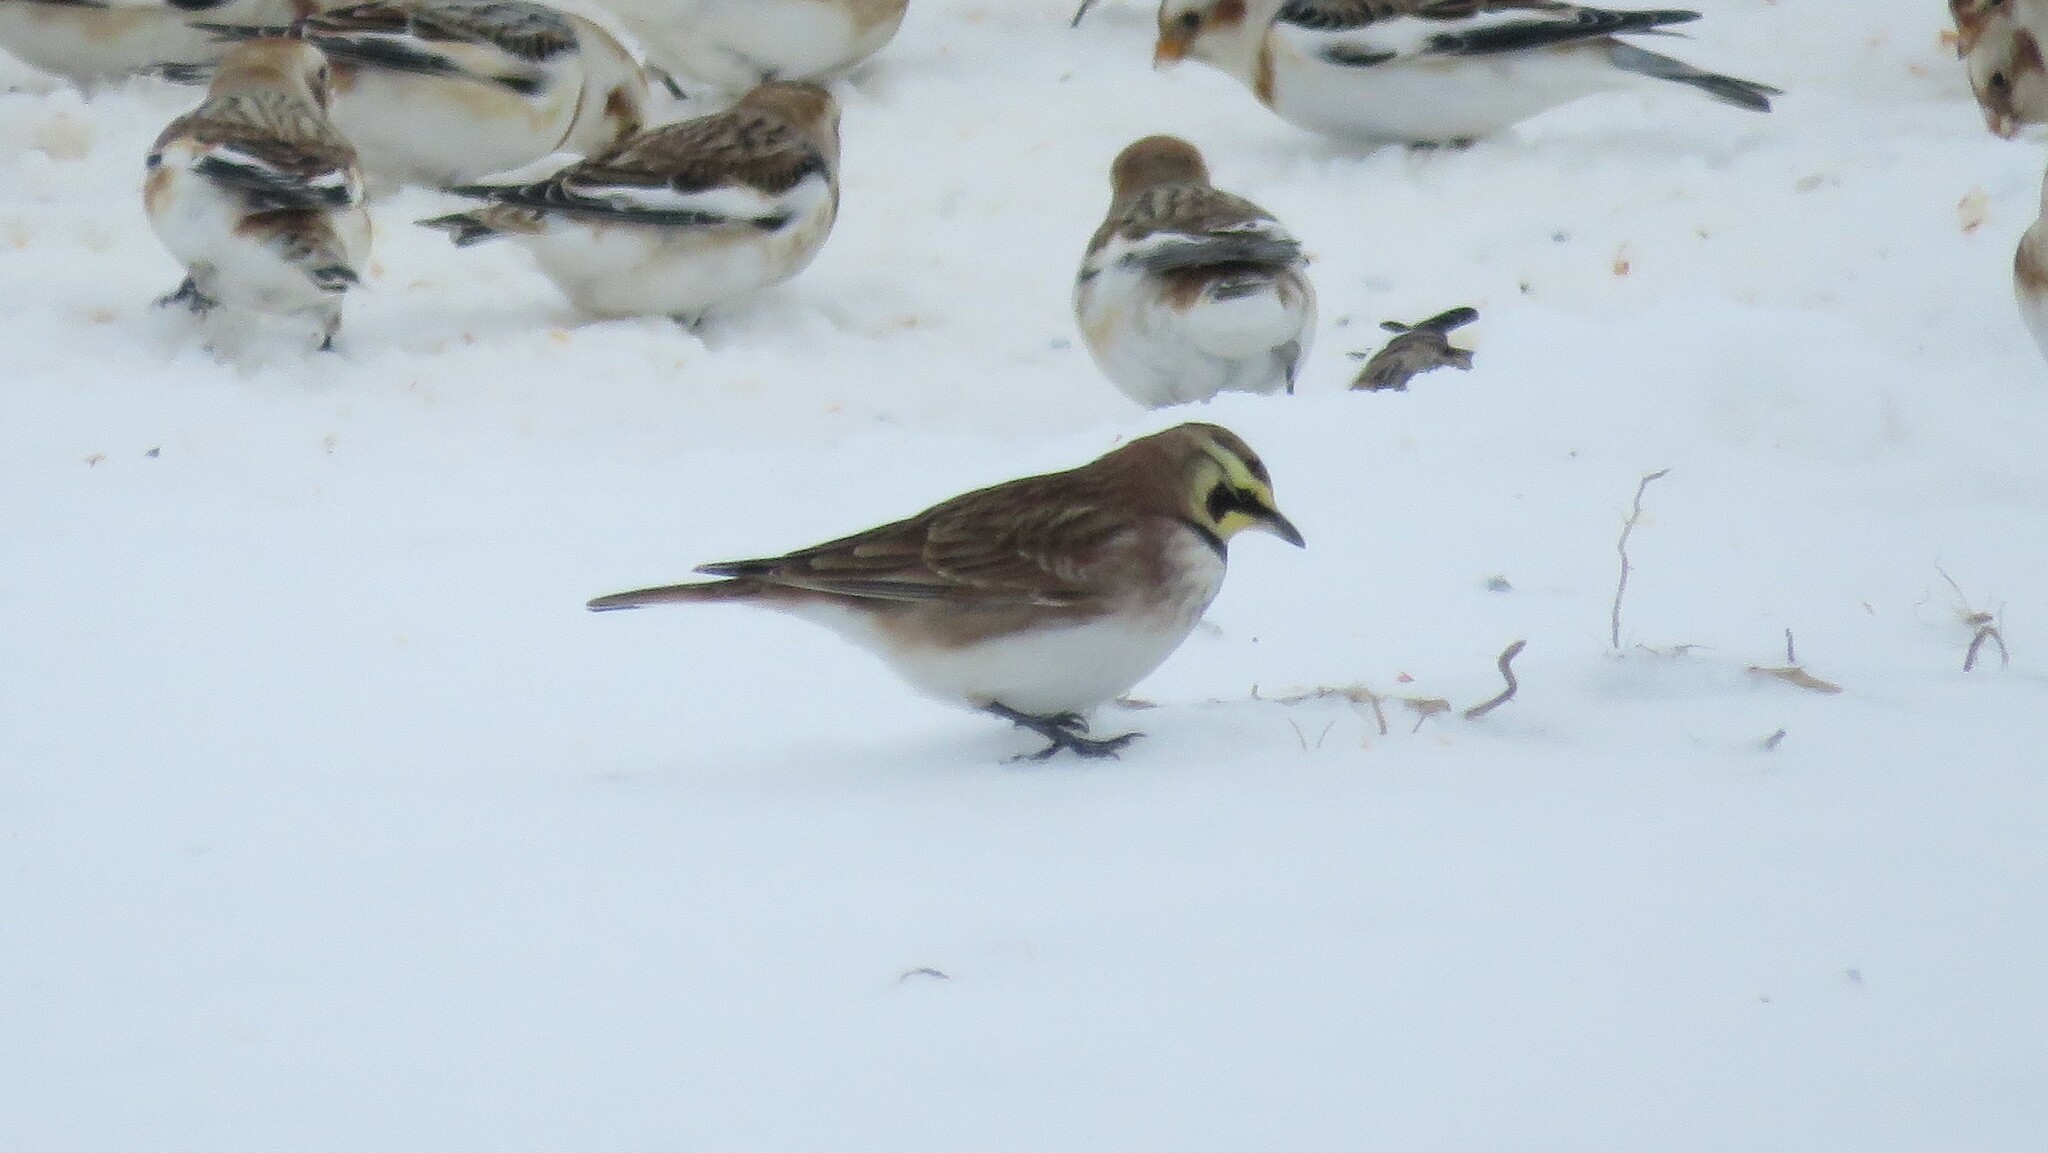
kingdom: Animalia
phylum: Chordata
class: Aves
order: Passeriformes
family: Alaudidae
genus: Eremophila
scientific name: Eremophila alpestris
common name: Horned lark
